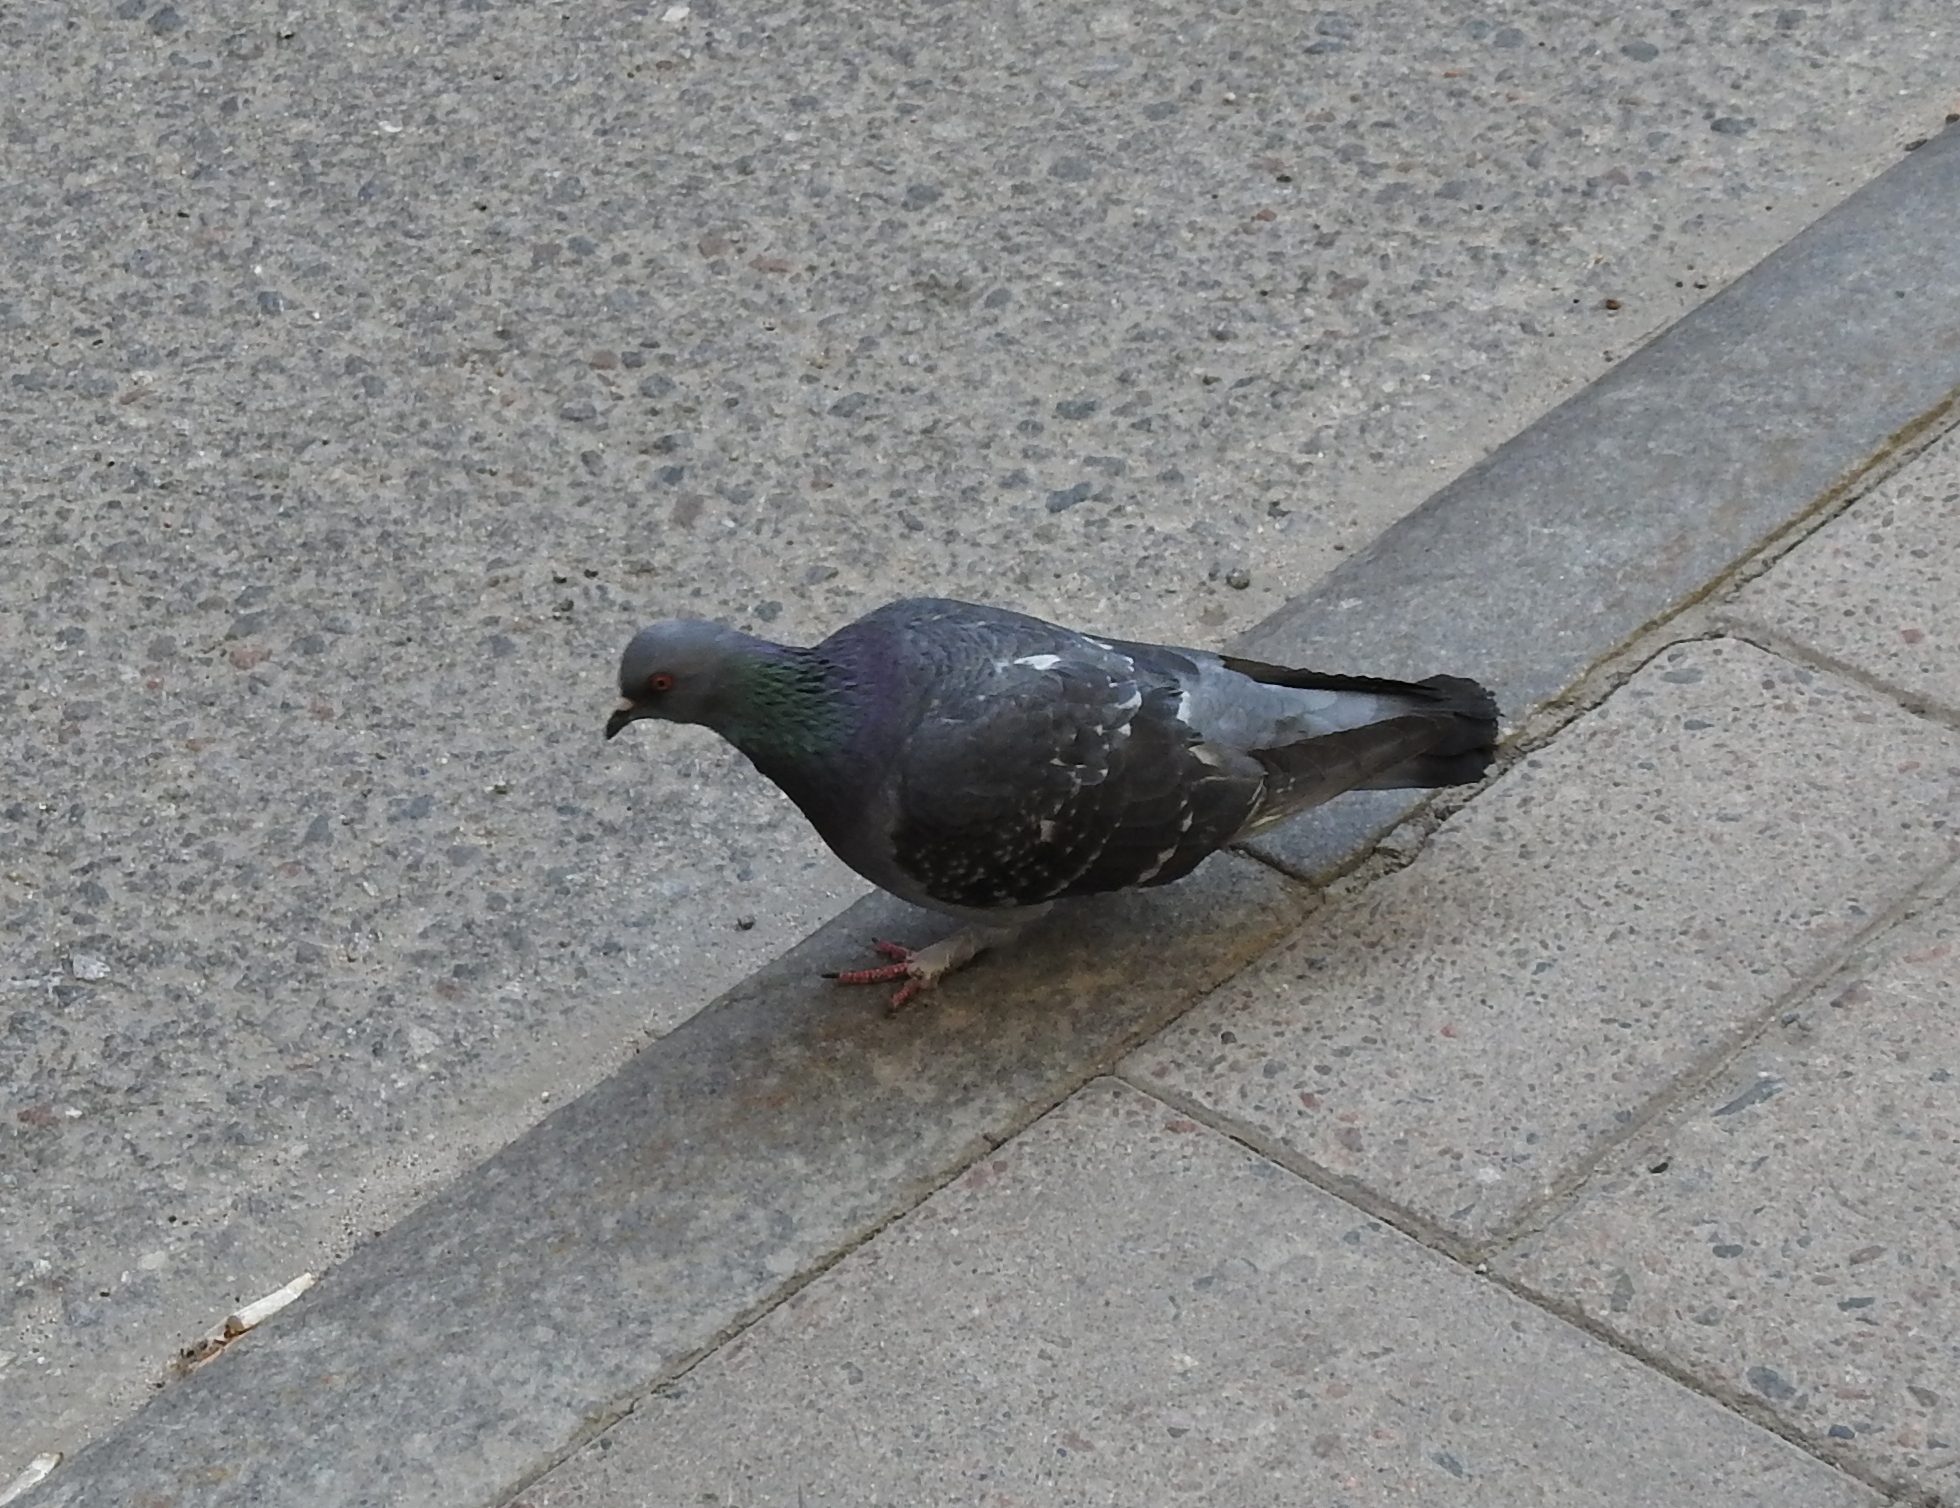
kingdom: Animalia
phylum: Chordata
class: Aves
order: Columbiformes
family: Columbidae
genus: Columba
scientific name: Columba livia
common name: Rock pigeon
